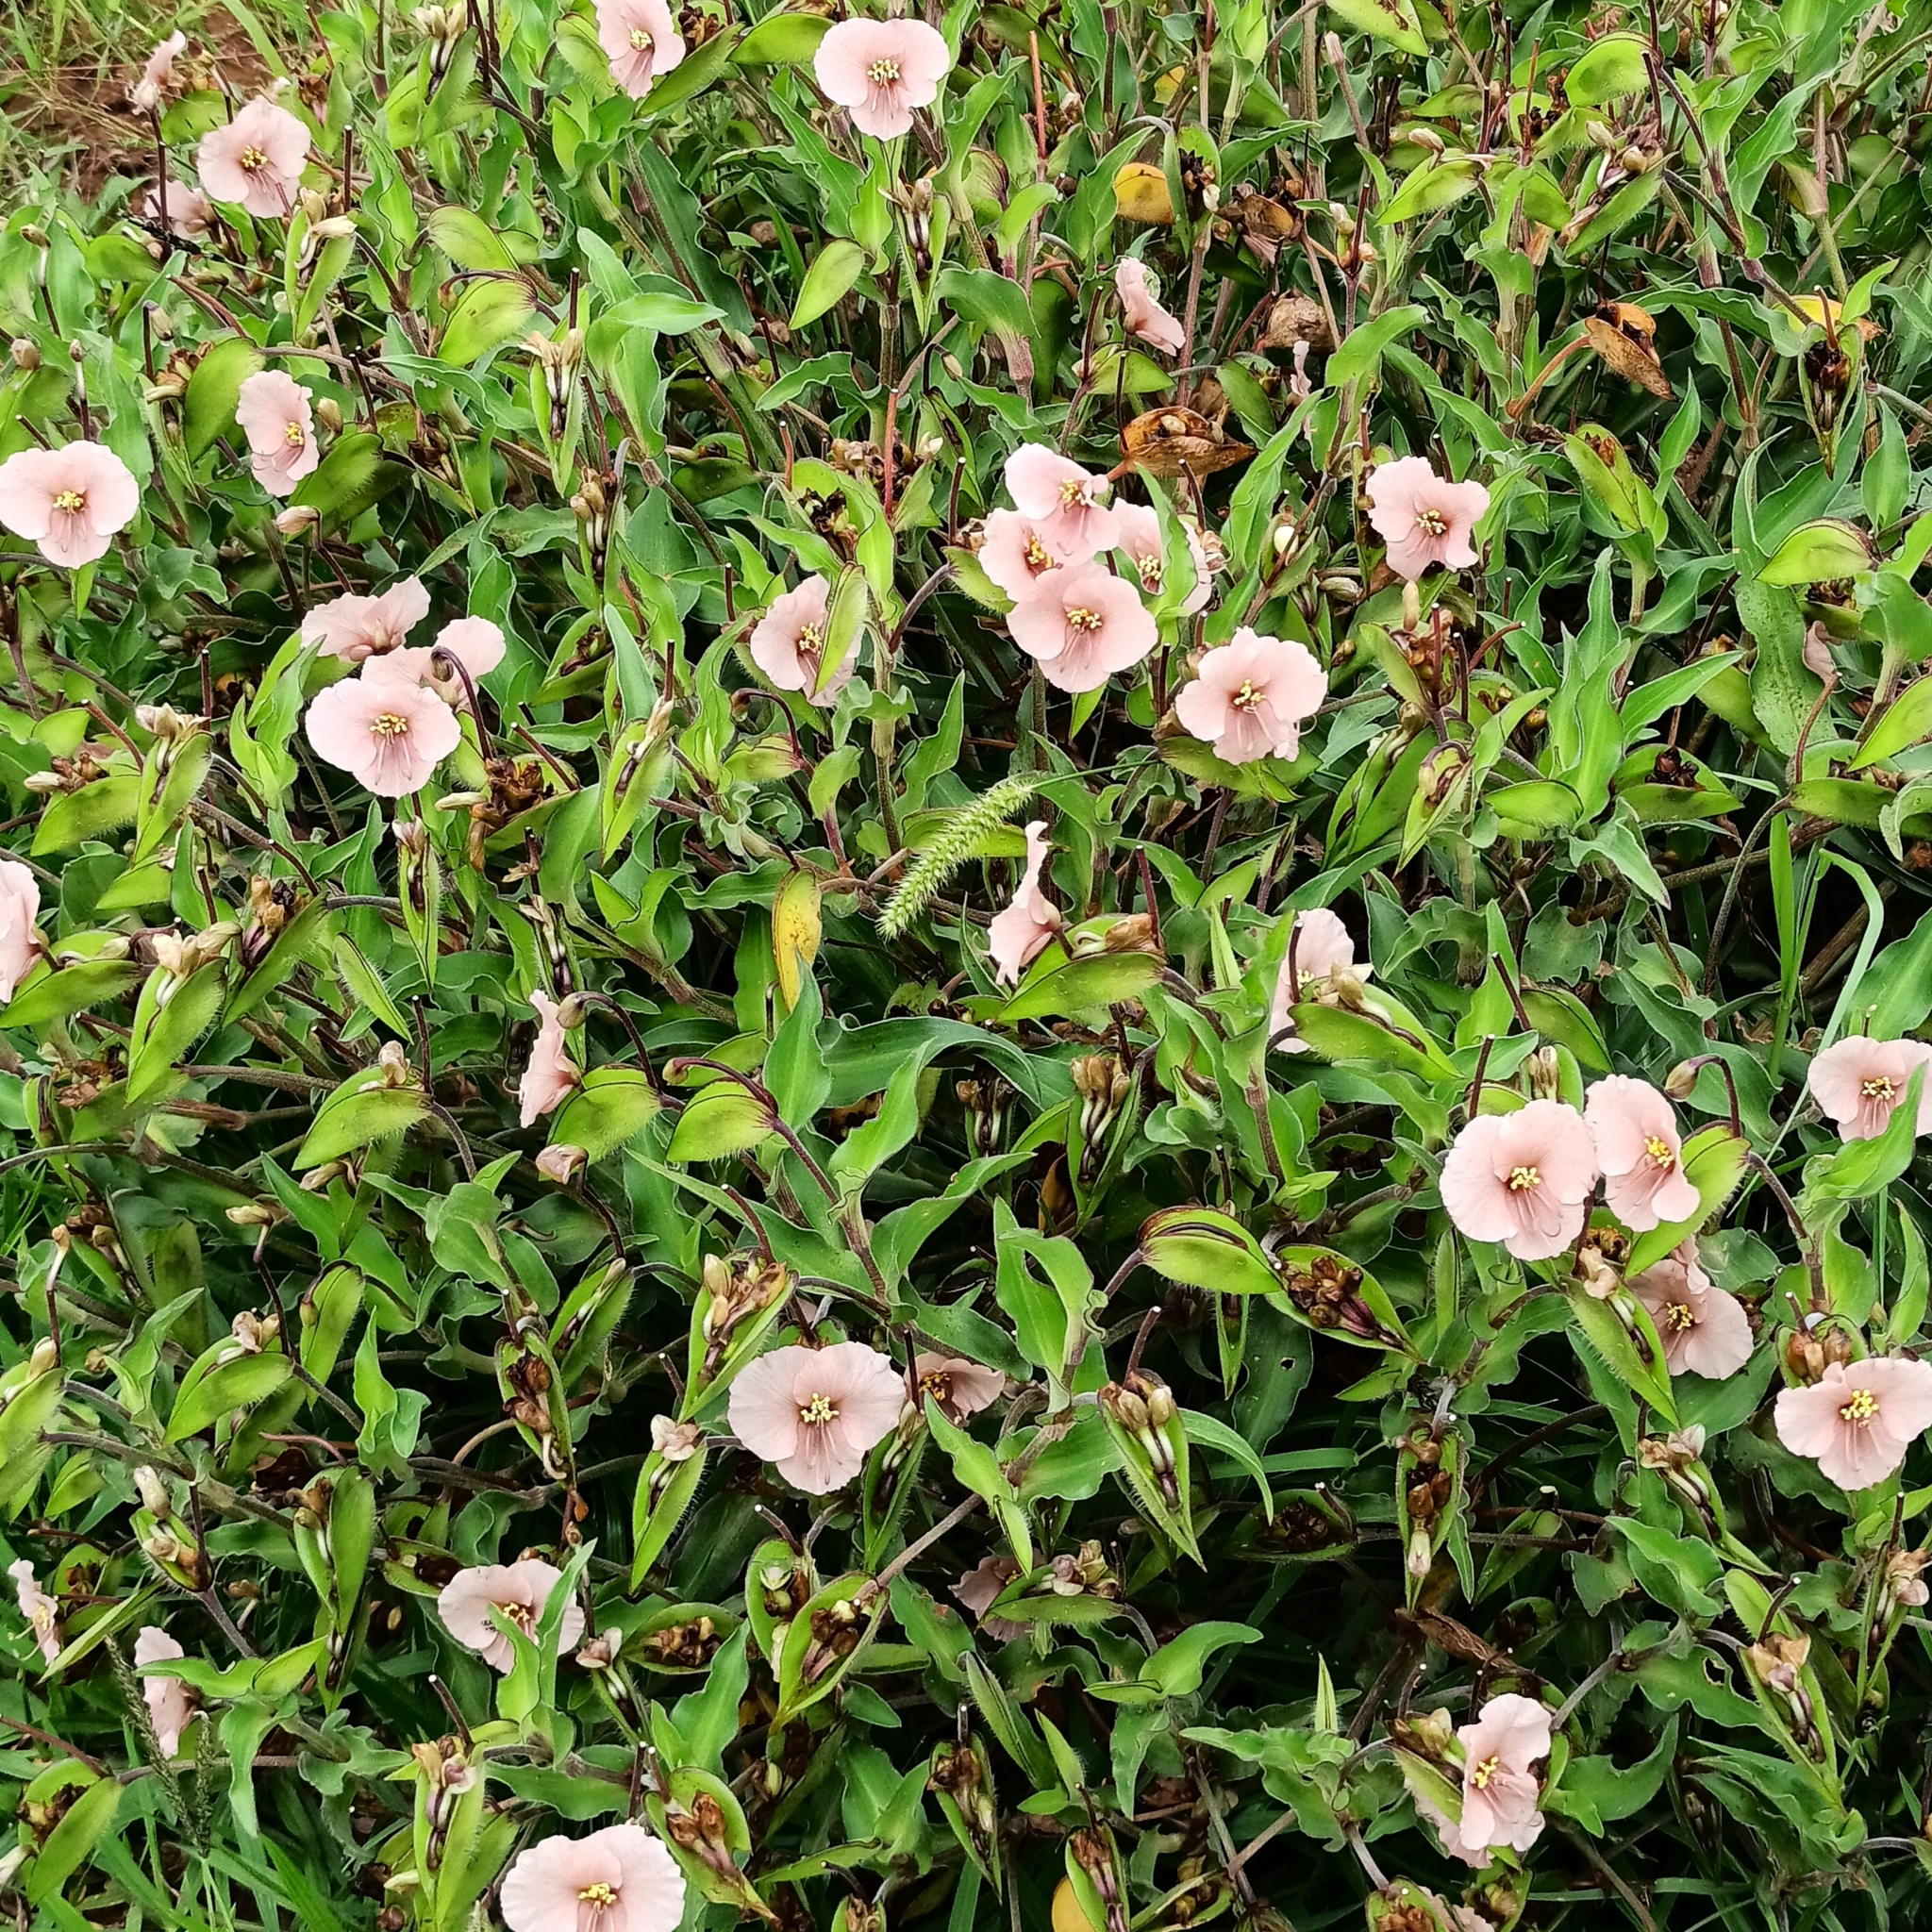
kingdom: Plantae
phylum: Tracheophyta
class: Liliopsida
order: Commelinales
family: Commelinaceae
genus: Commelina
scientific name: Commelina scabra
